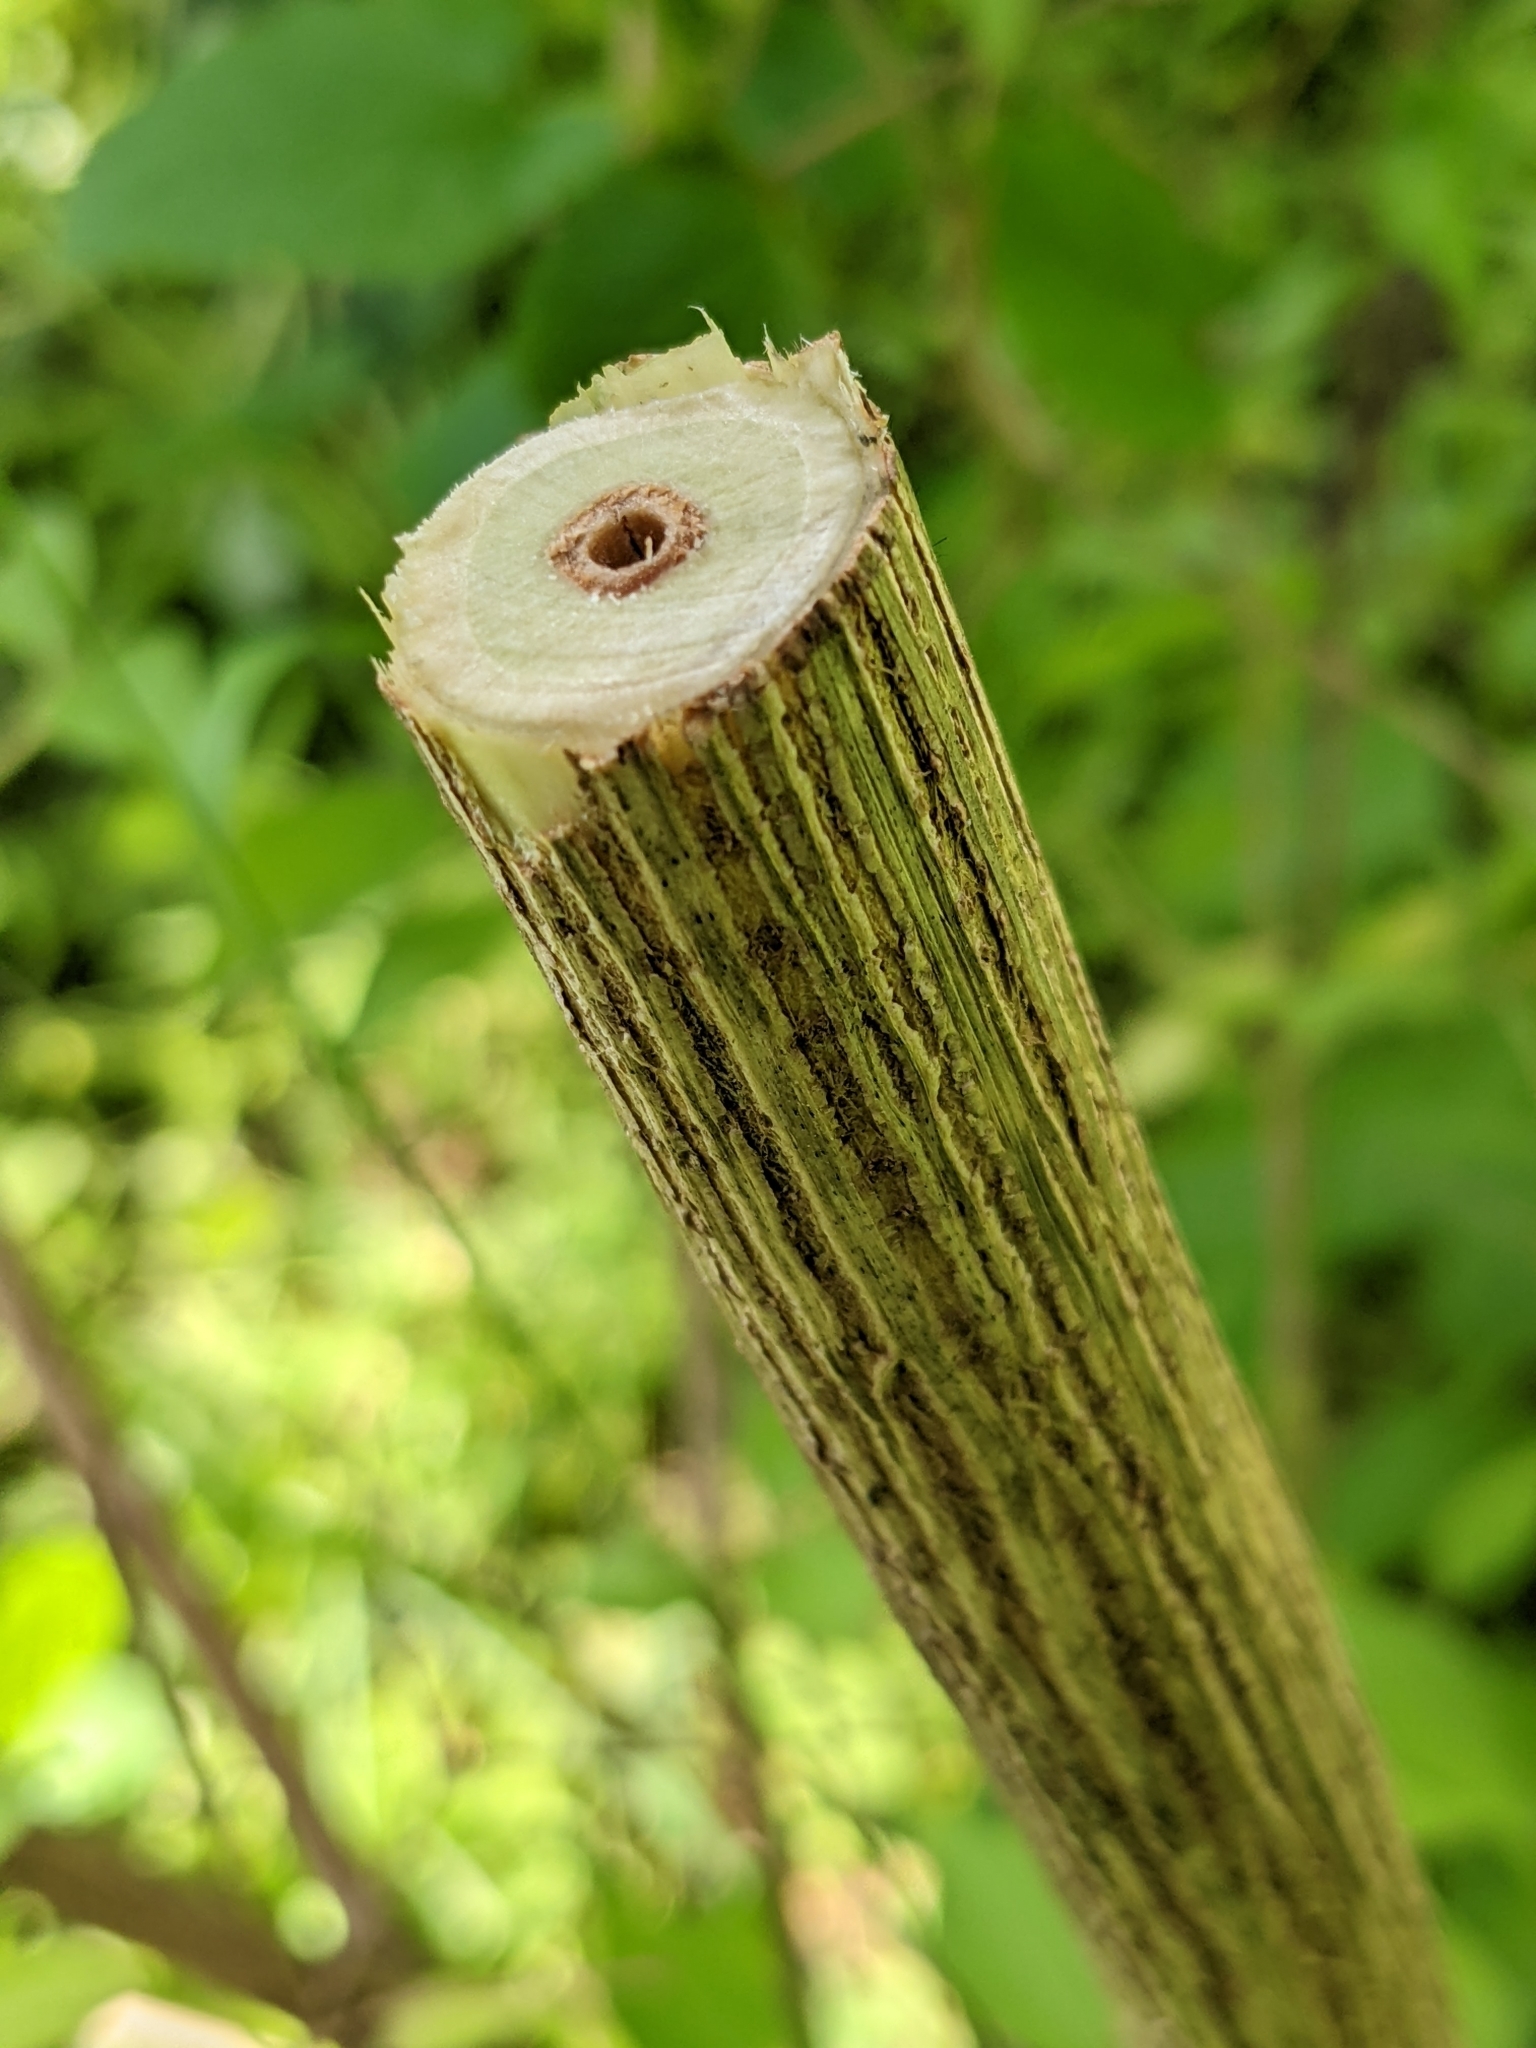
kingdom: Plantae
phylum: Tracheophyta
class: Magnoliopsida
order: Dipsacales
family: Caprifoliaceae
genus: Lonicera
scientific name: Lonicera maackii
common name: Amur honeysuckle
